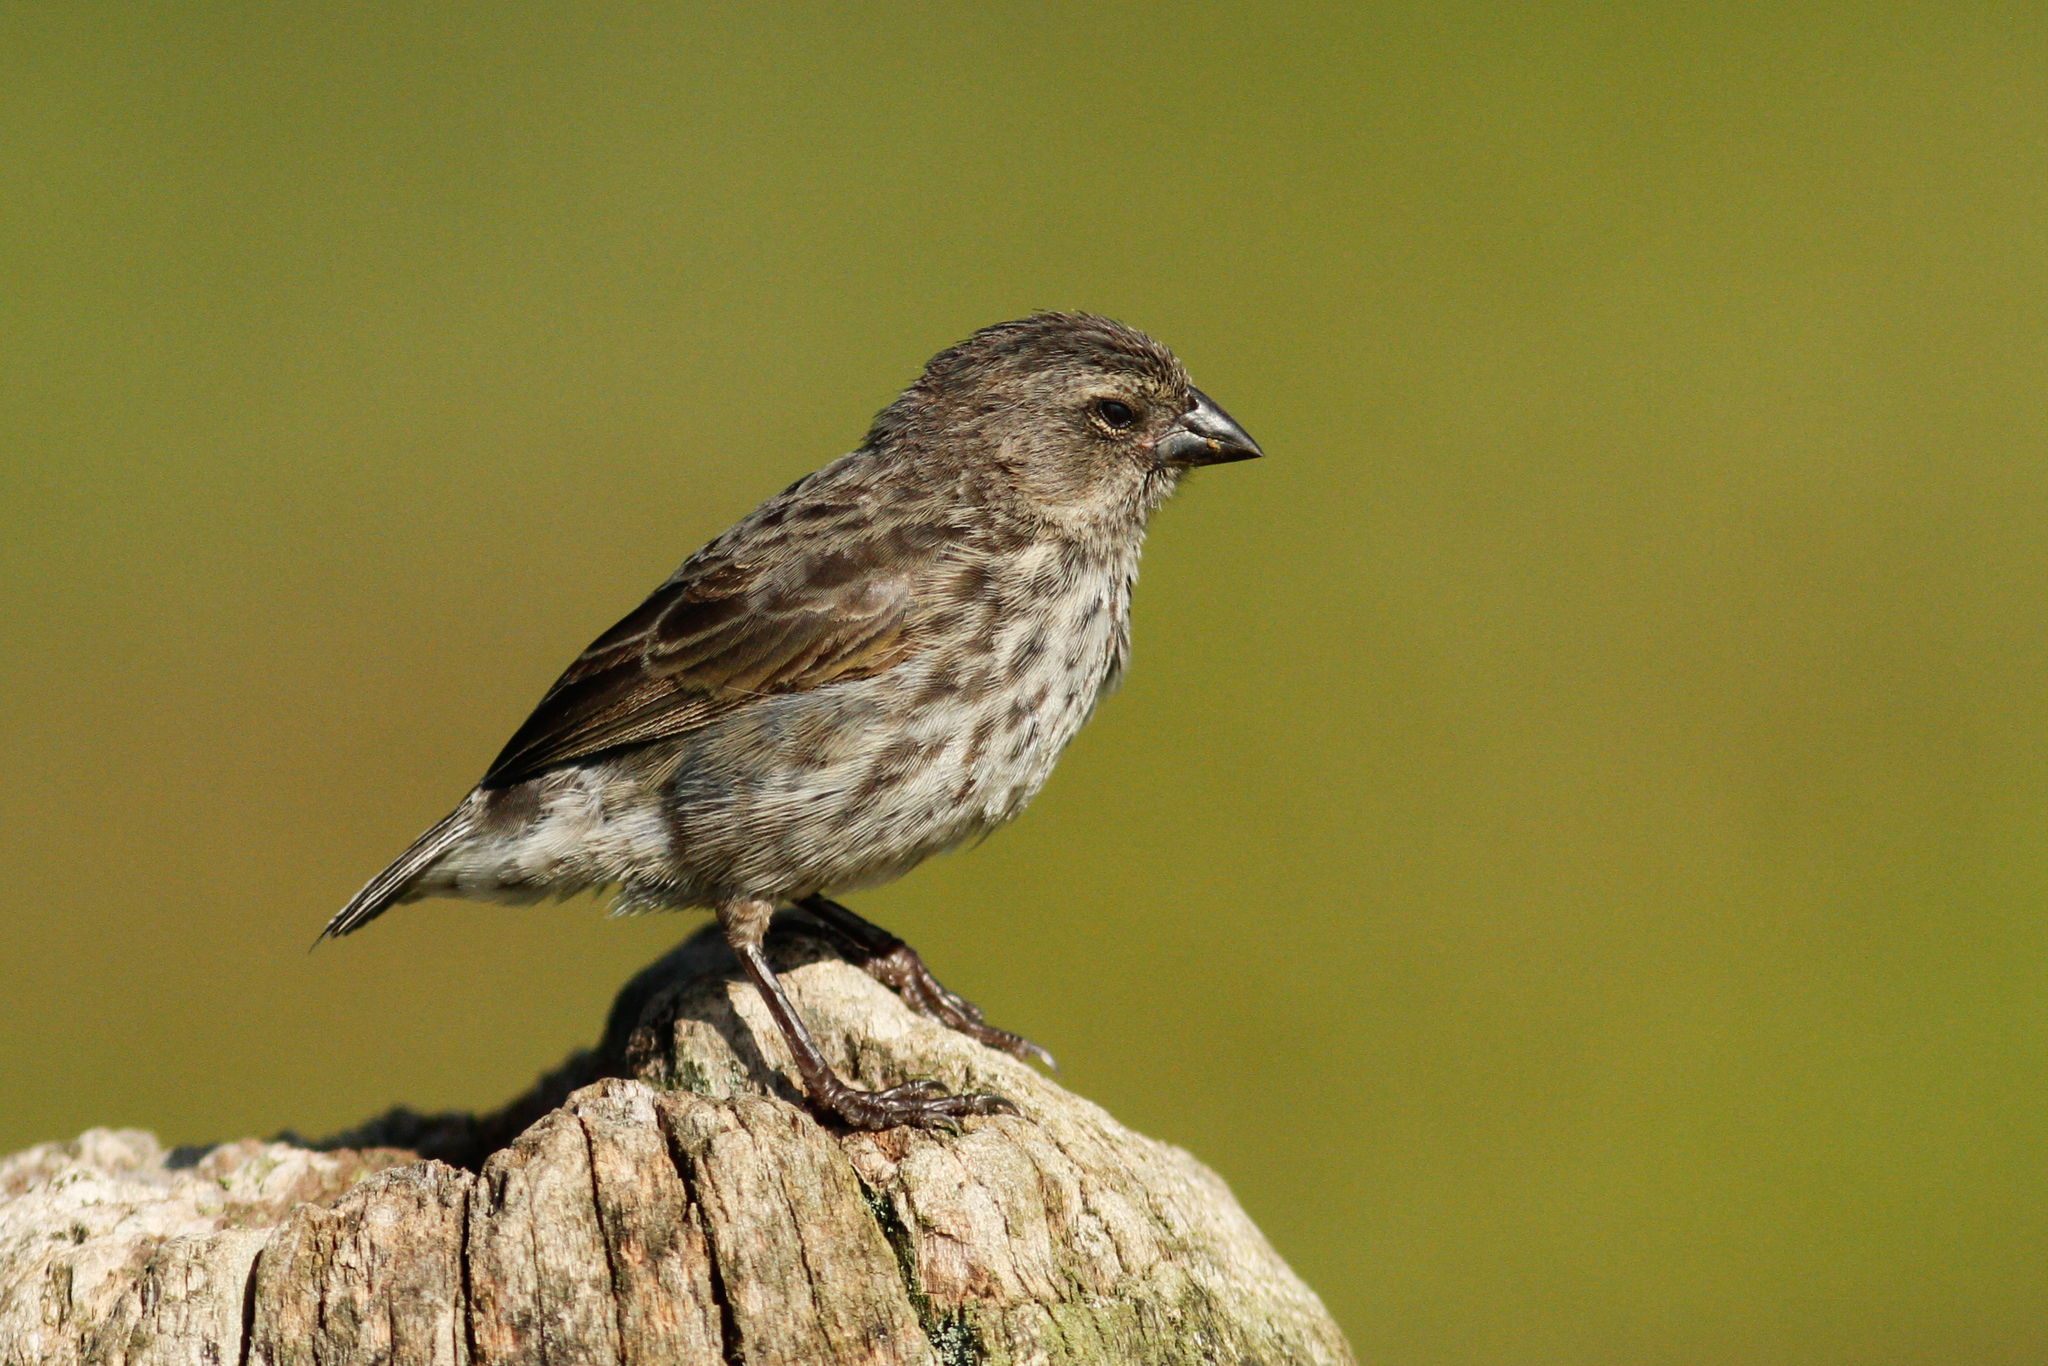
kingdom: Animalia
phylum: Chordata
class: Aves
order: Passeriformes
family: Thraupidae
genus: Geospiza
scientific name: Geospiza fuliginosa
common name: Small ground finch
